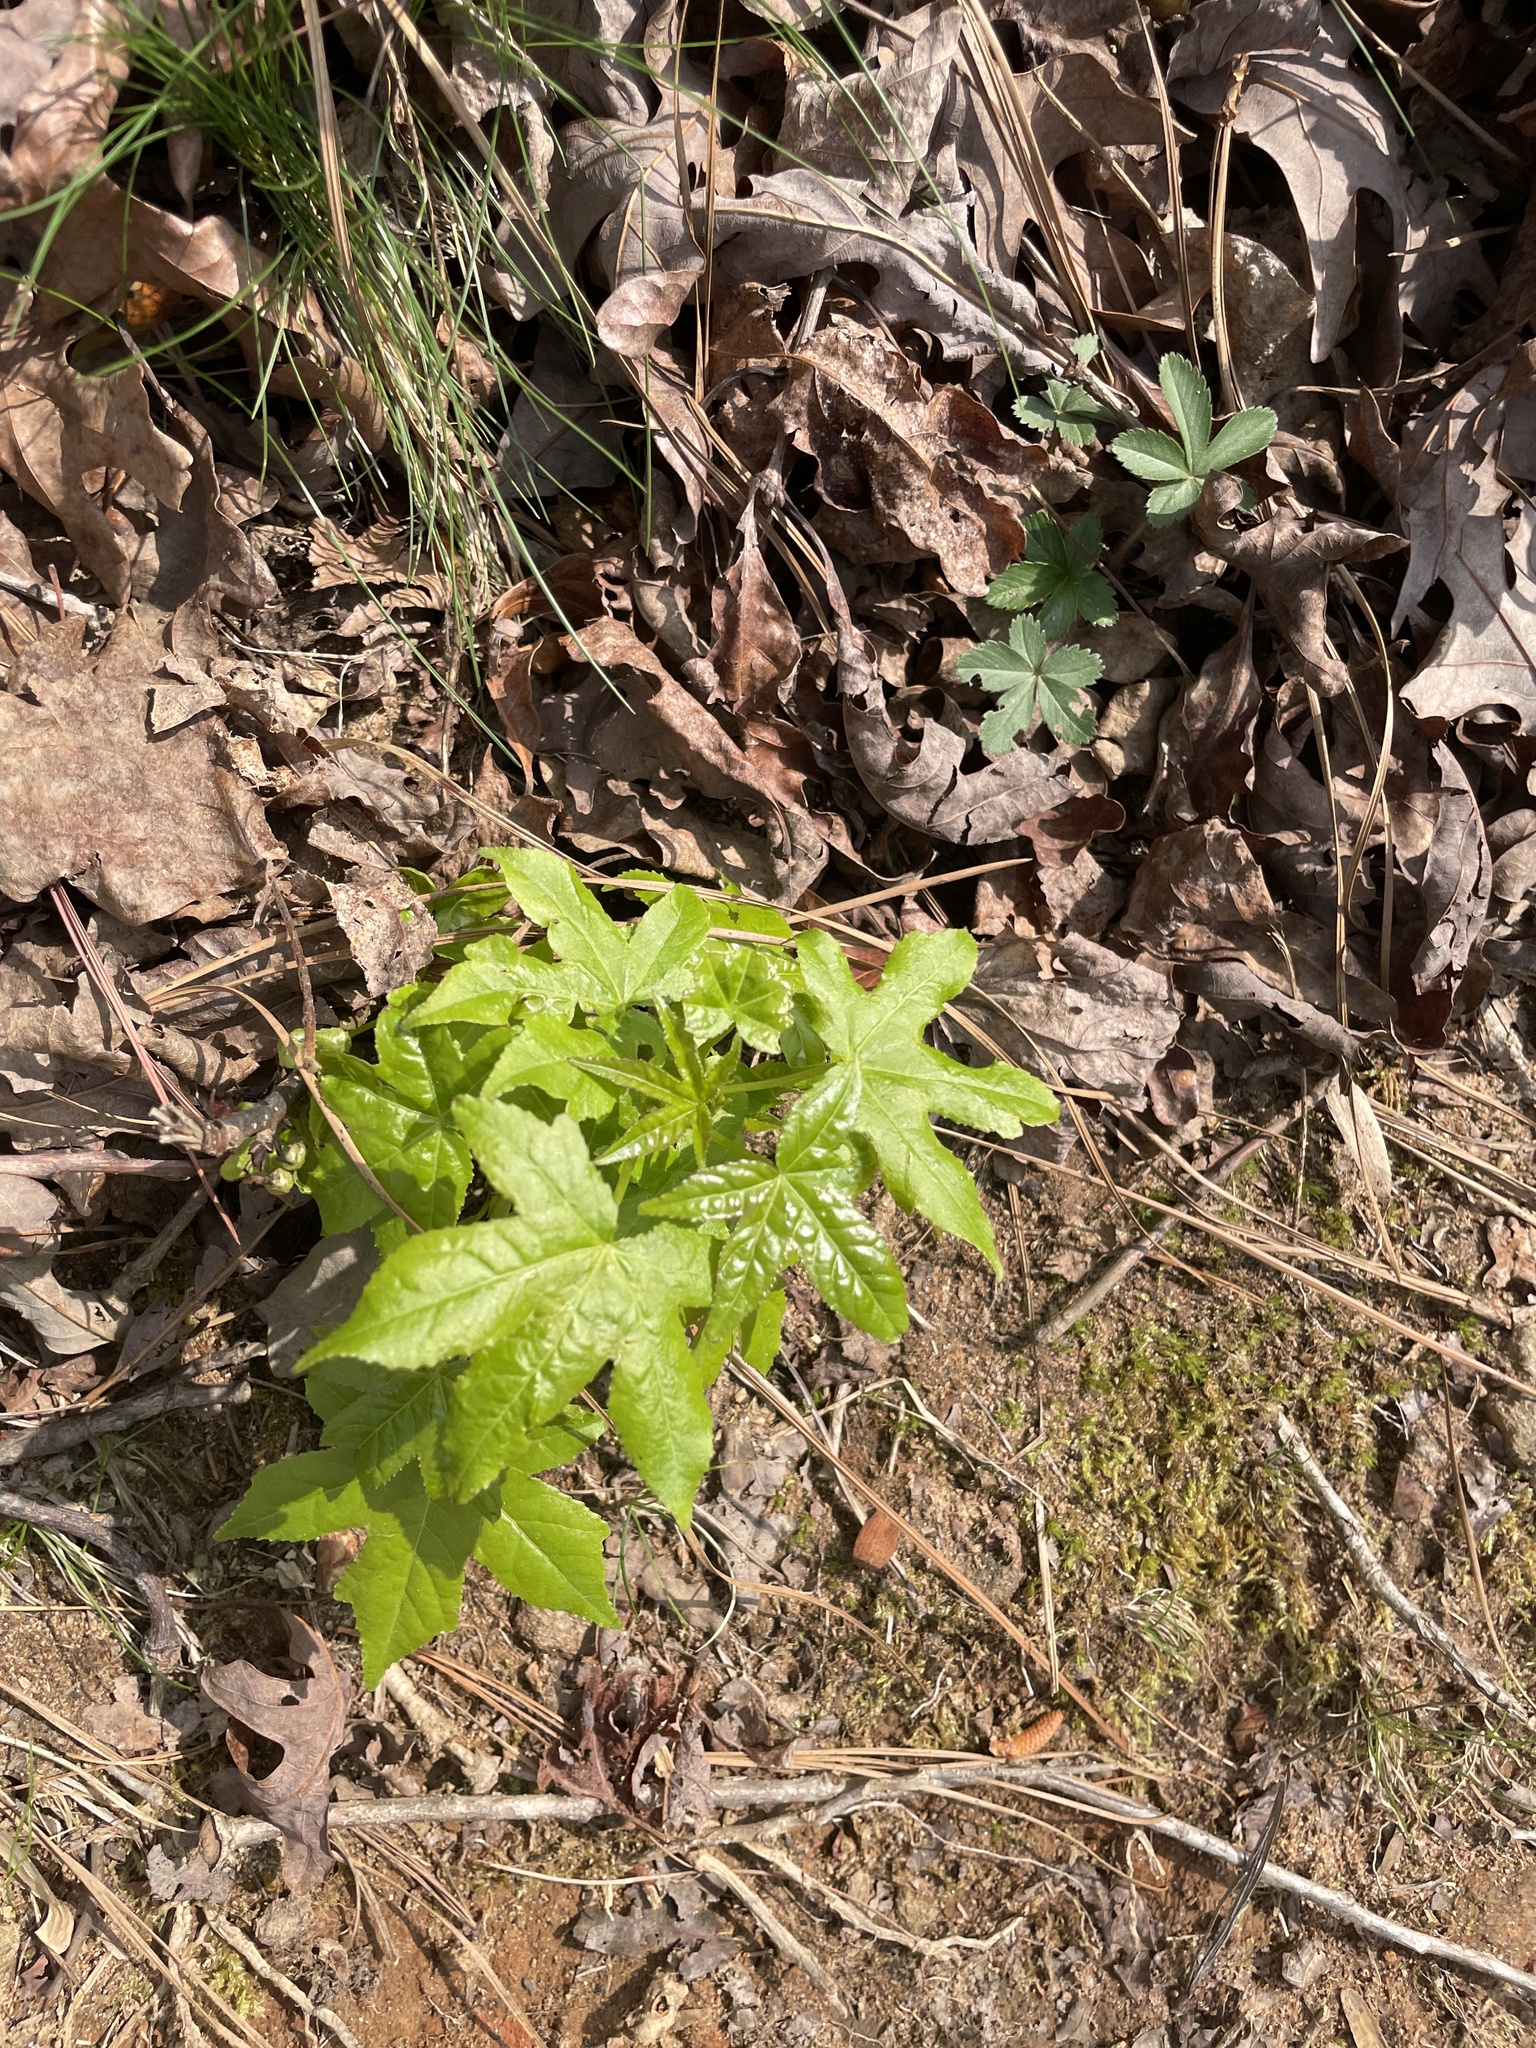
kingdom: Plantae
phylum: Tracheophyta
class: Magnoliopsida
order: Saxifragales
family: Altingiaceae
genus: Liquidambar
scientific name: Liquidambar styraciflua
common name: Sweet gum
